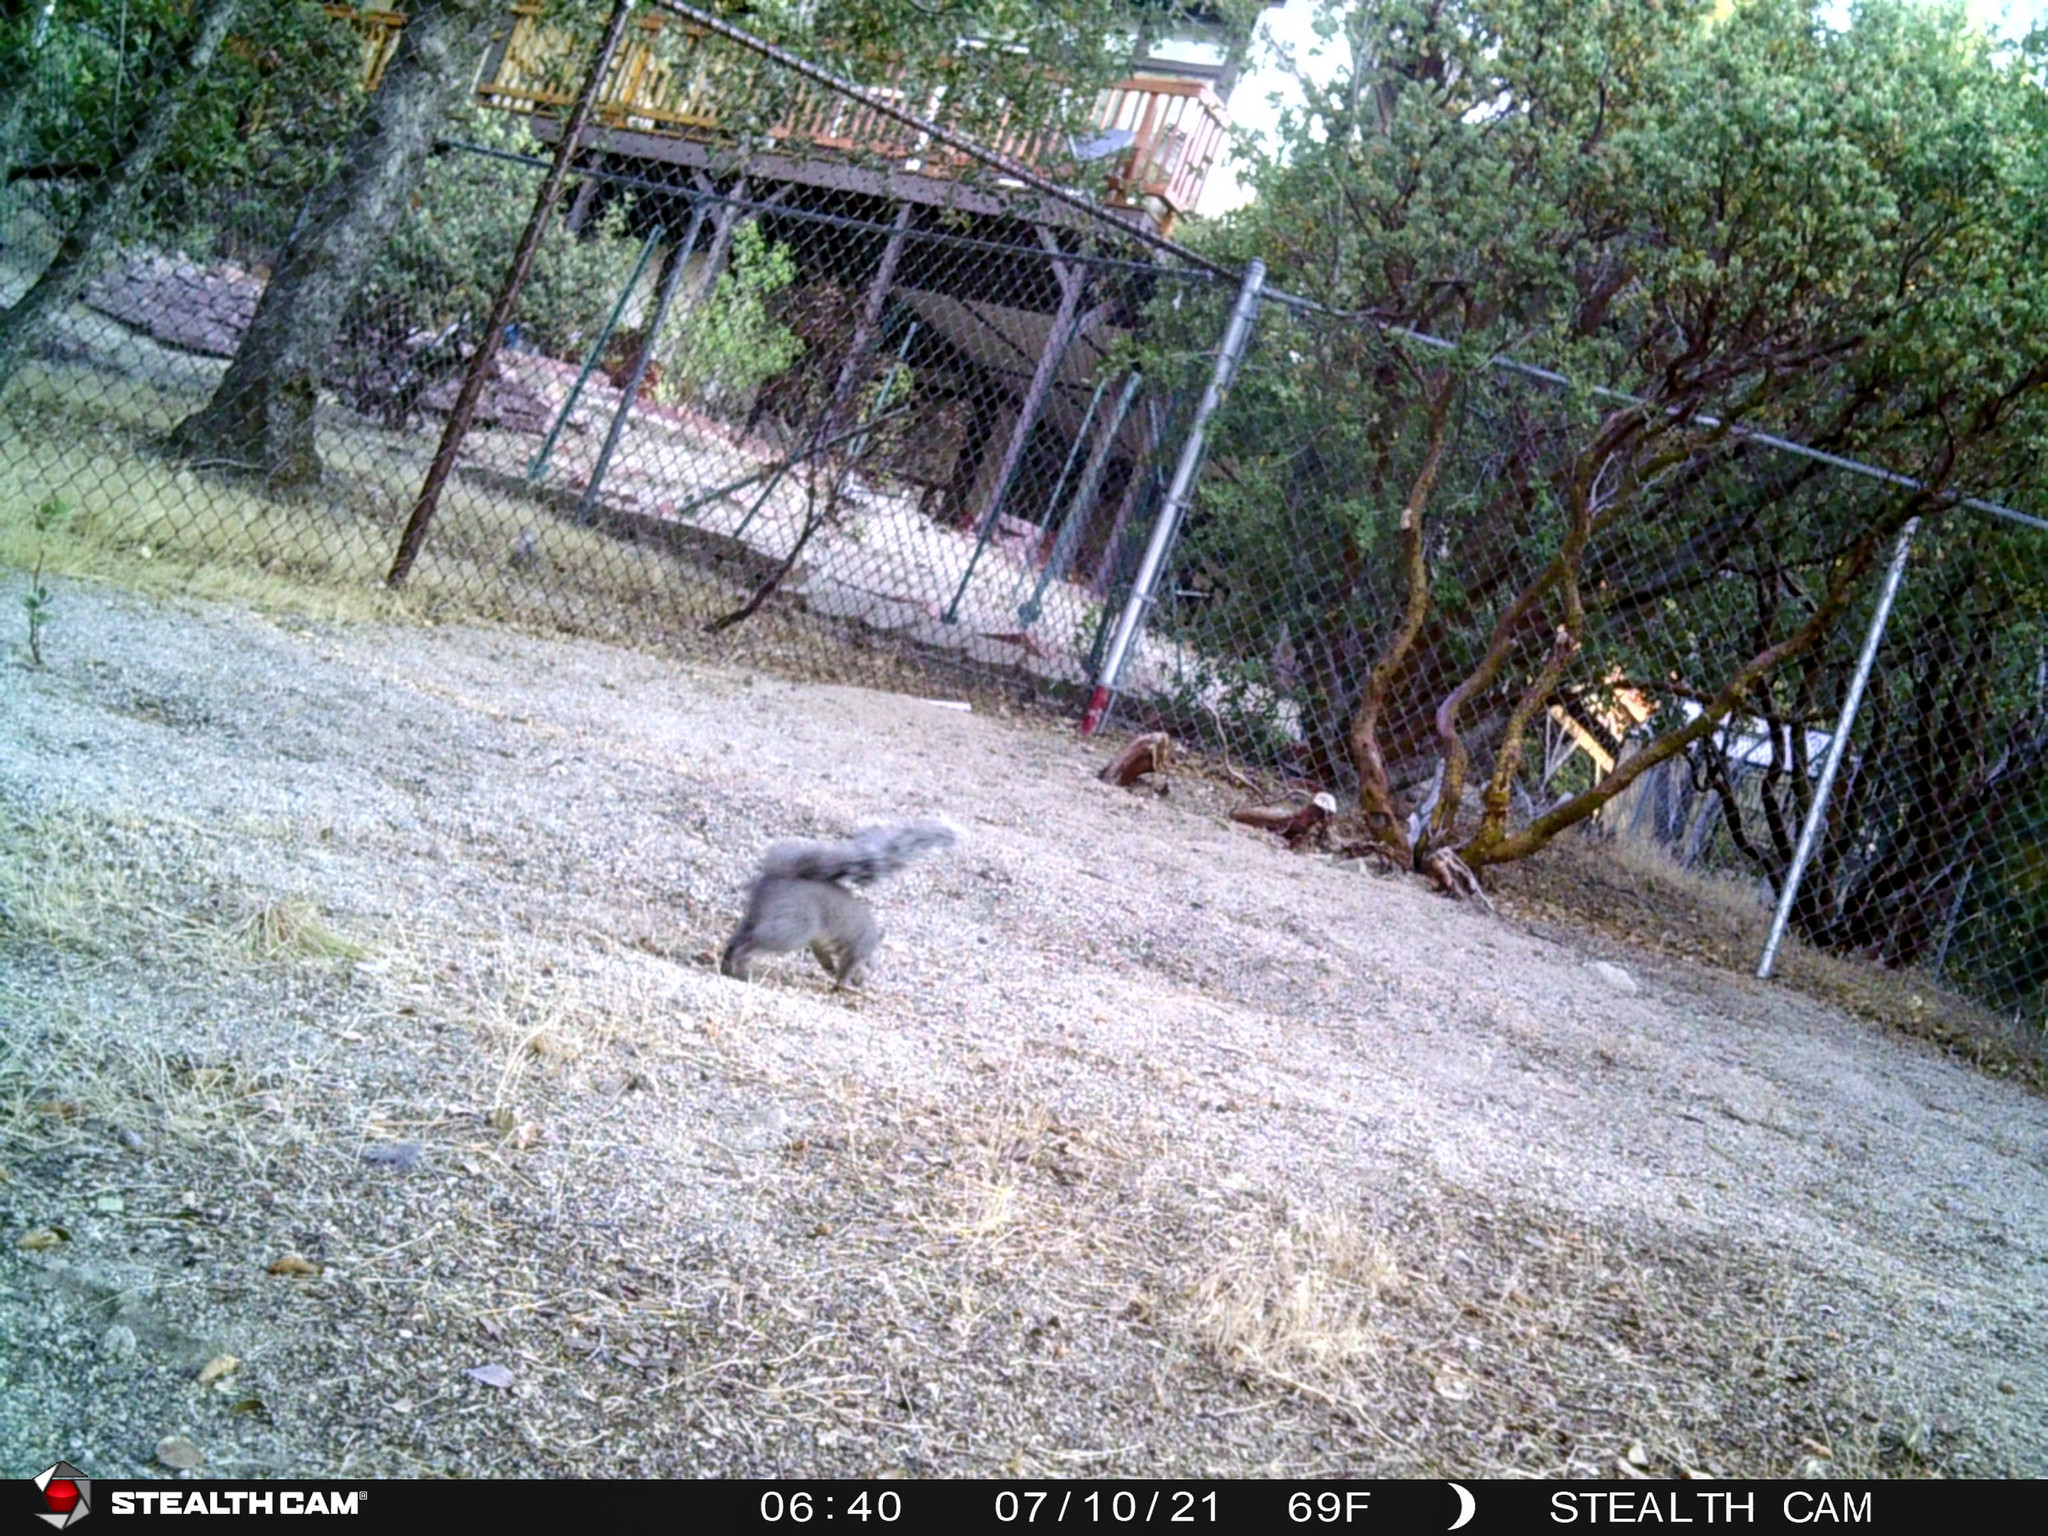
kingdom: Animalia
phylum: Chordata
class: Mammalia
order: Rodentia
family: Sciuridae
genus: Sciurus
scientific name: Sciurus griseus
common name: Western gray squirrel
